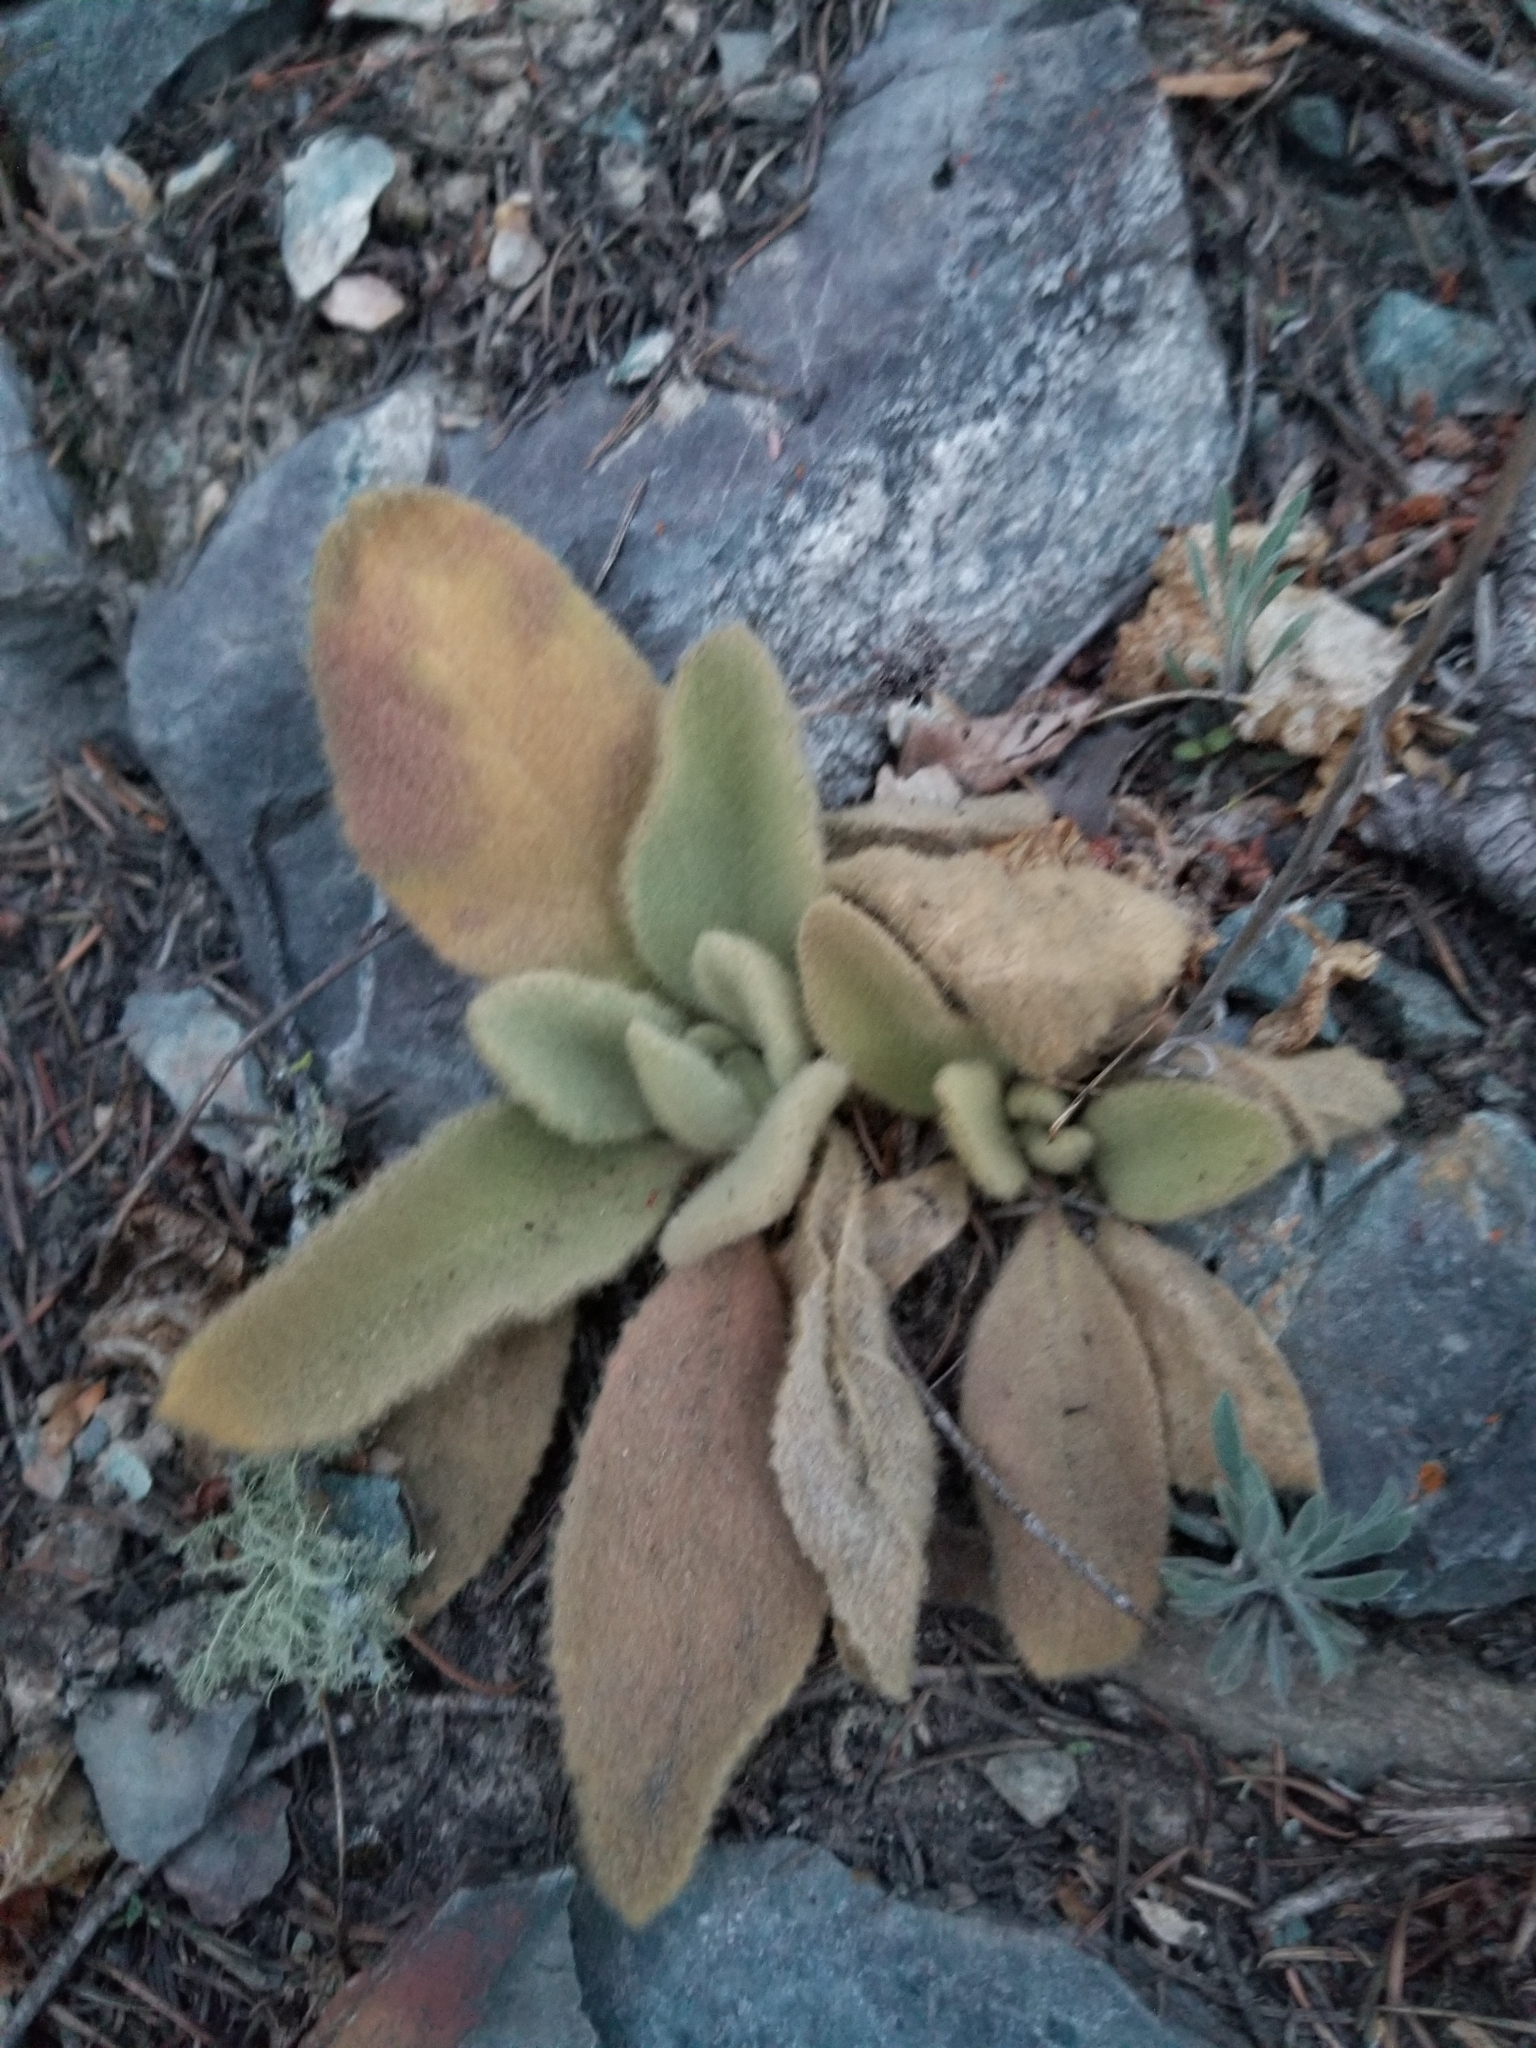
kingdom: Plantae
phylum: Tracheophyta
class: Magnoliopsida
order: Lamiales
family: Scrophulariaceae
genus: Verbascum
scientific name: Verbascum thapsus
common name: Common mullein
